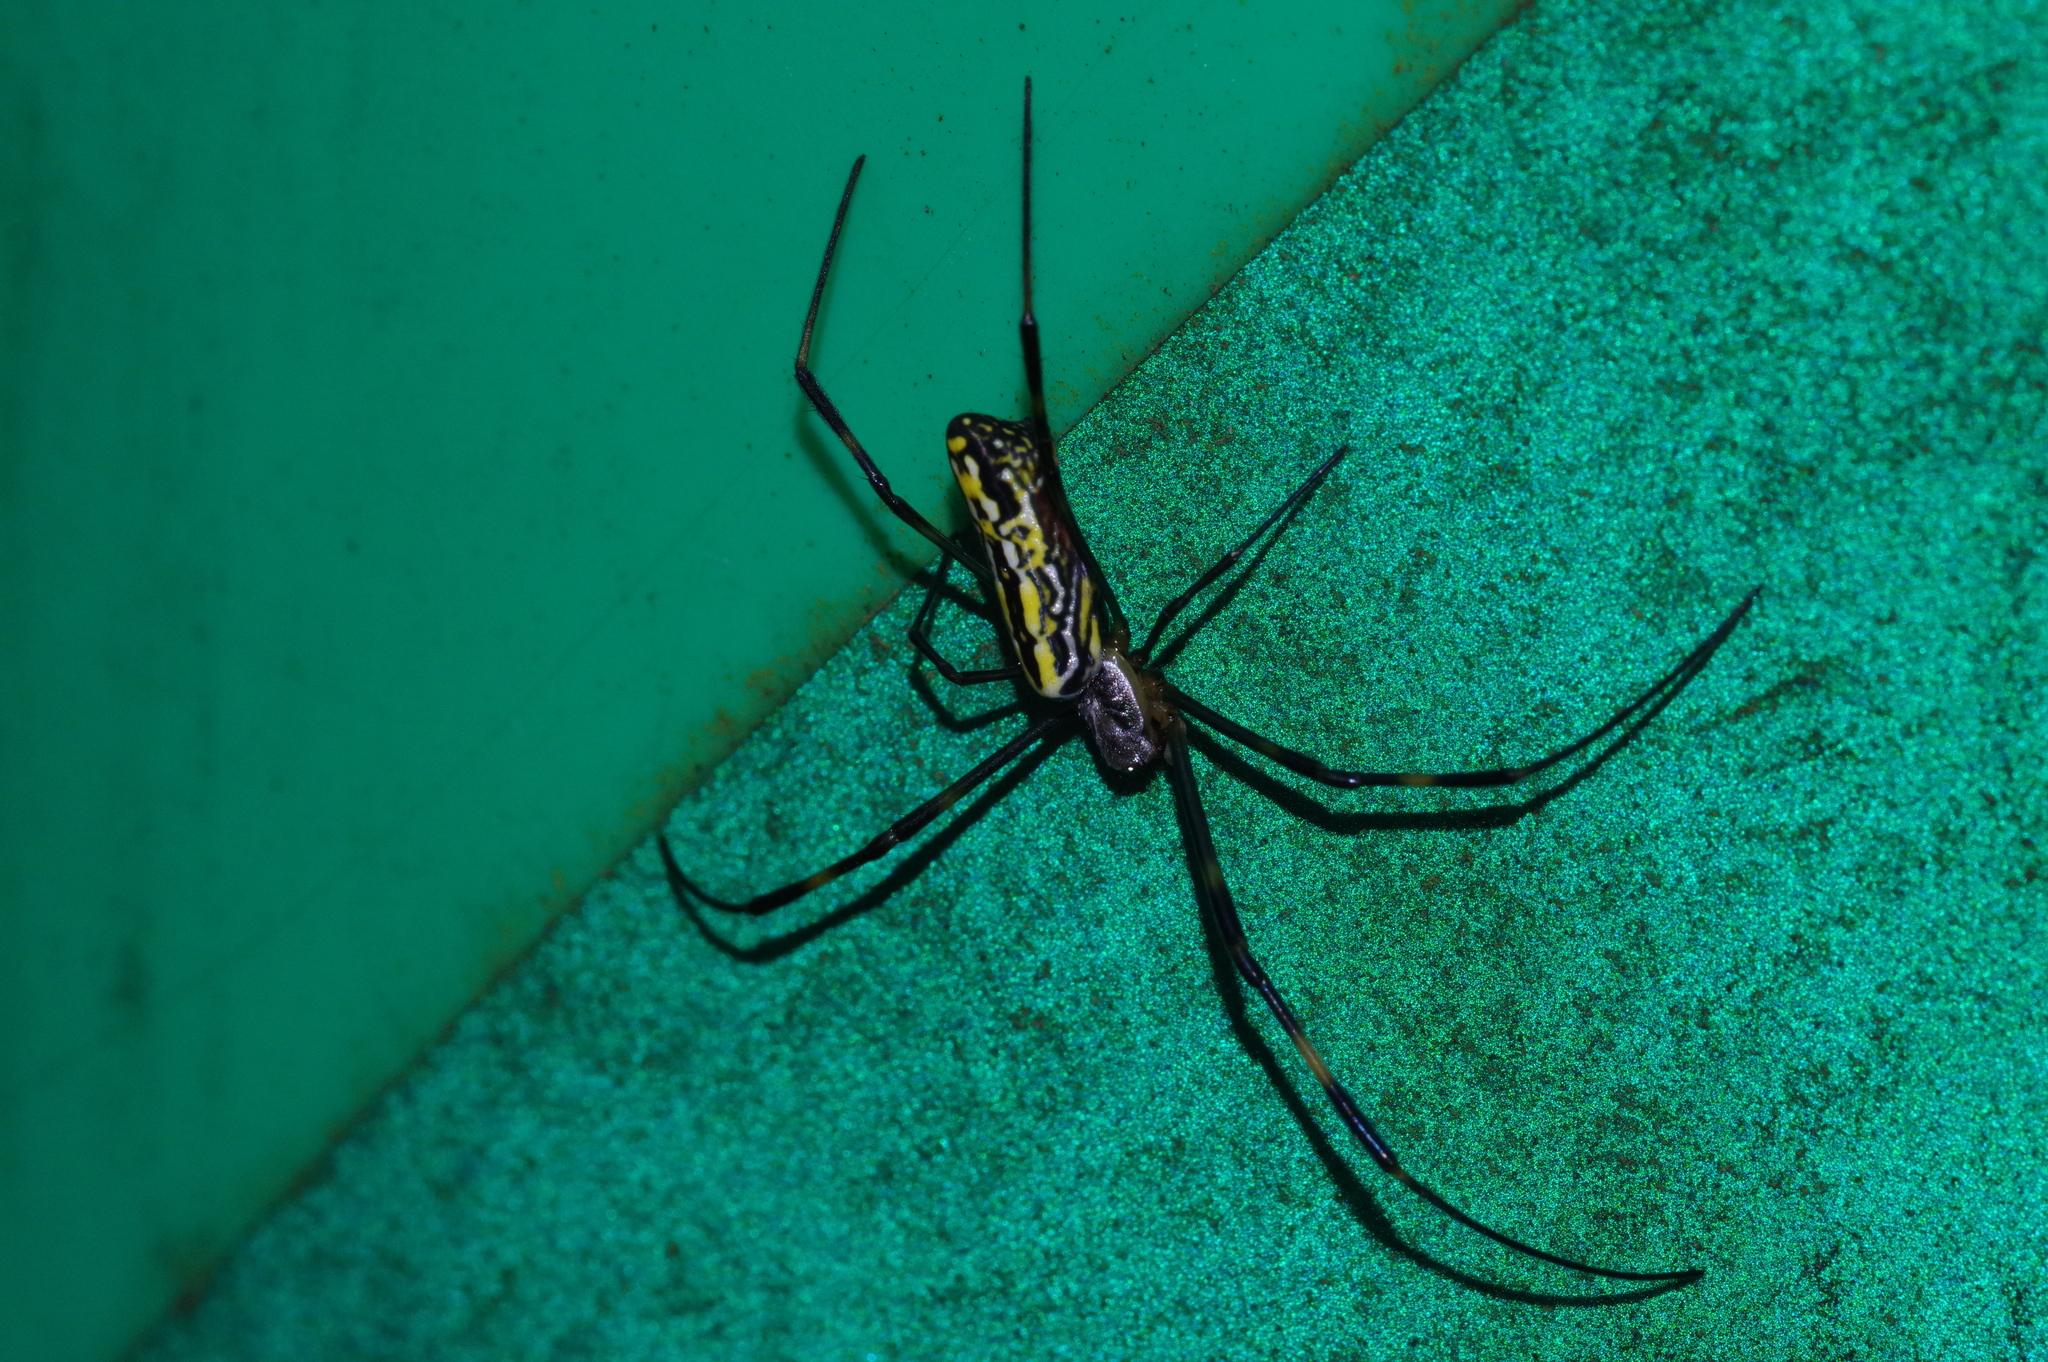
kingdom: Animalia
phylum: Arthropoda
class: Arachnida
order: Araneae
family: Araneidae
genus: Trichonephila
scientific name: Trichonephila clavata
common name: Jorō spider
